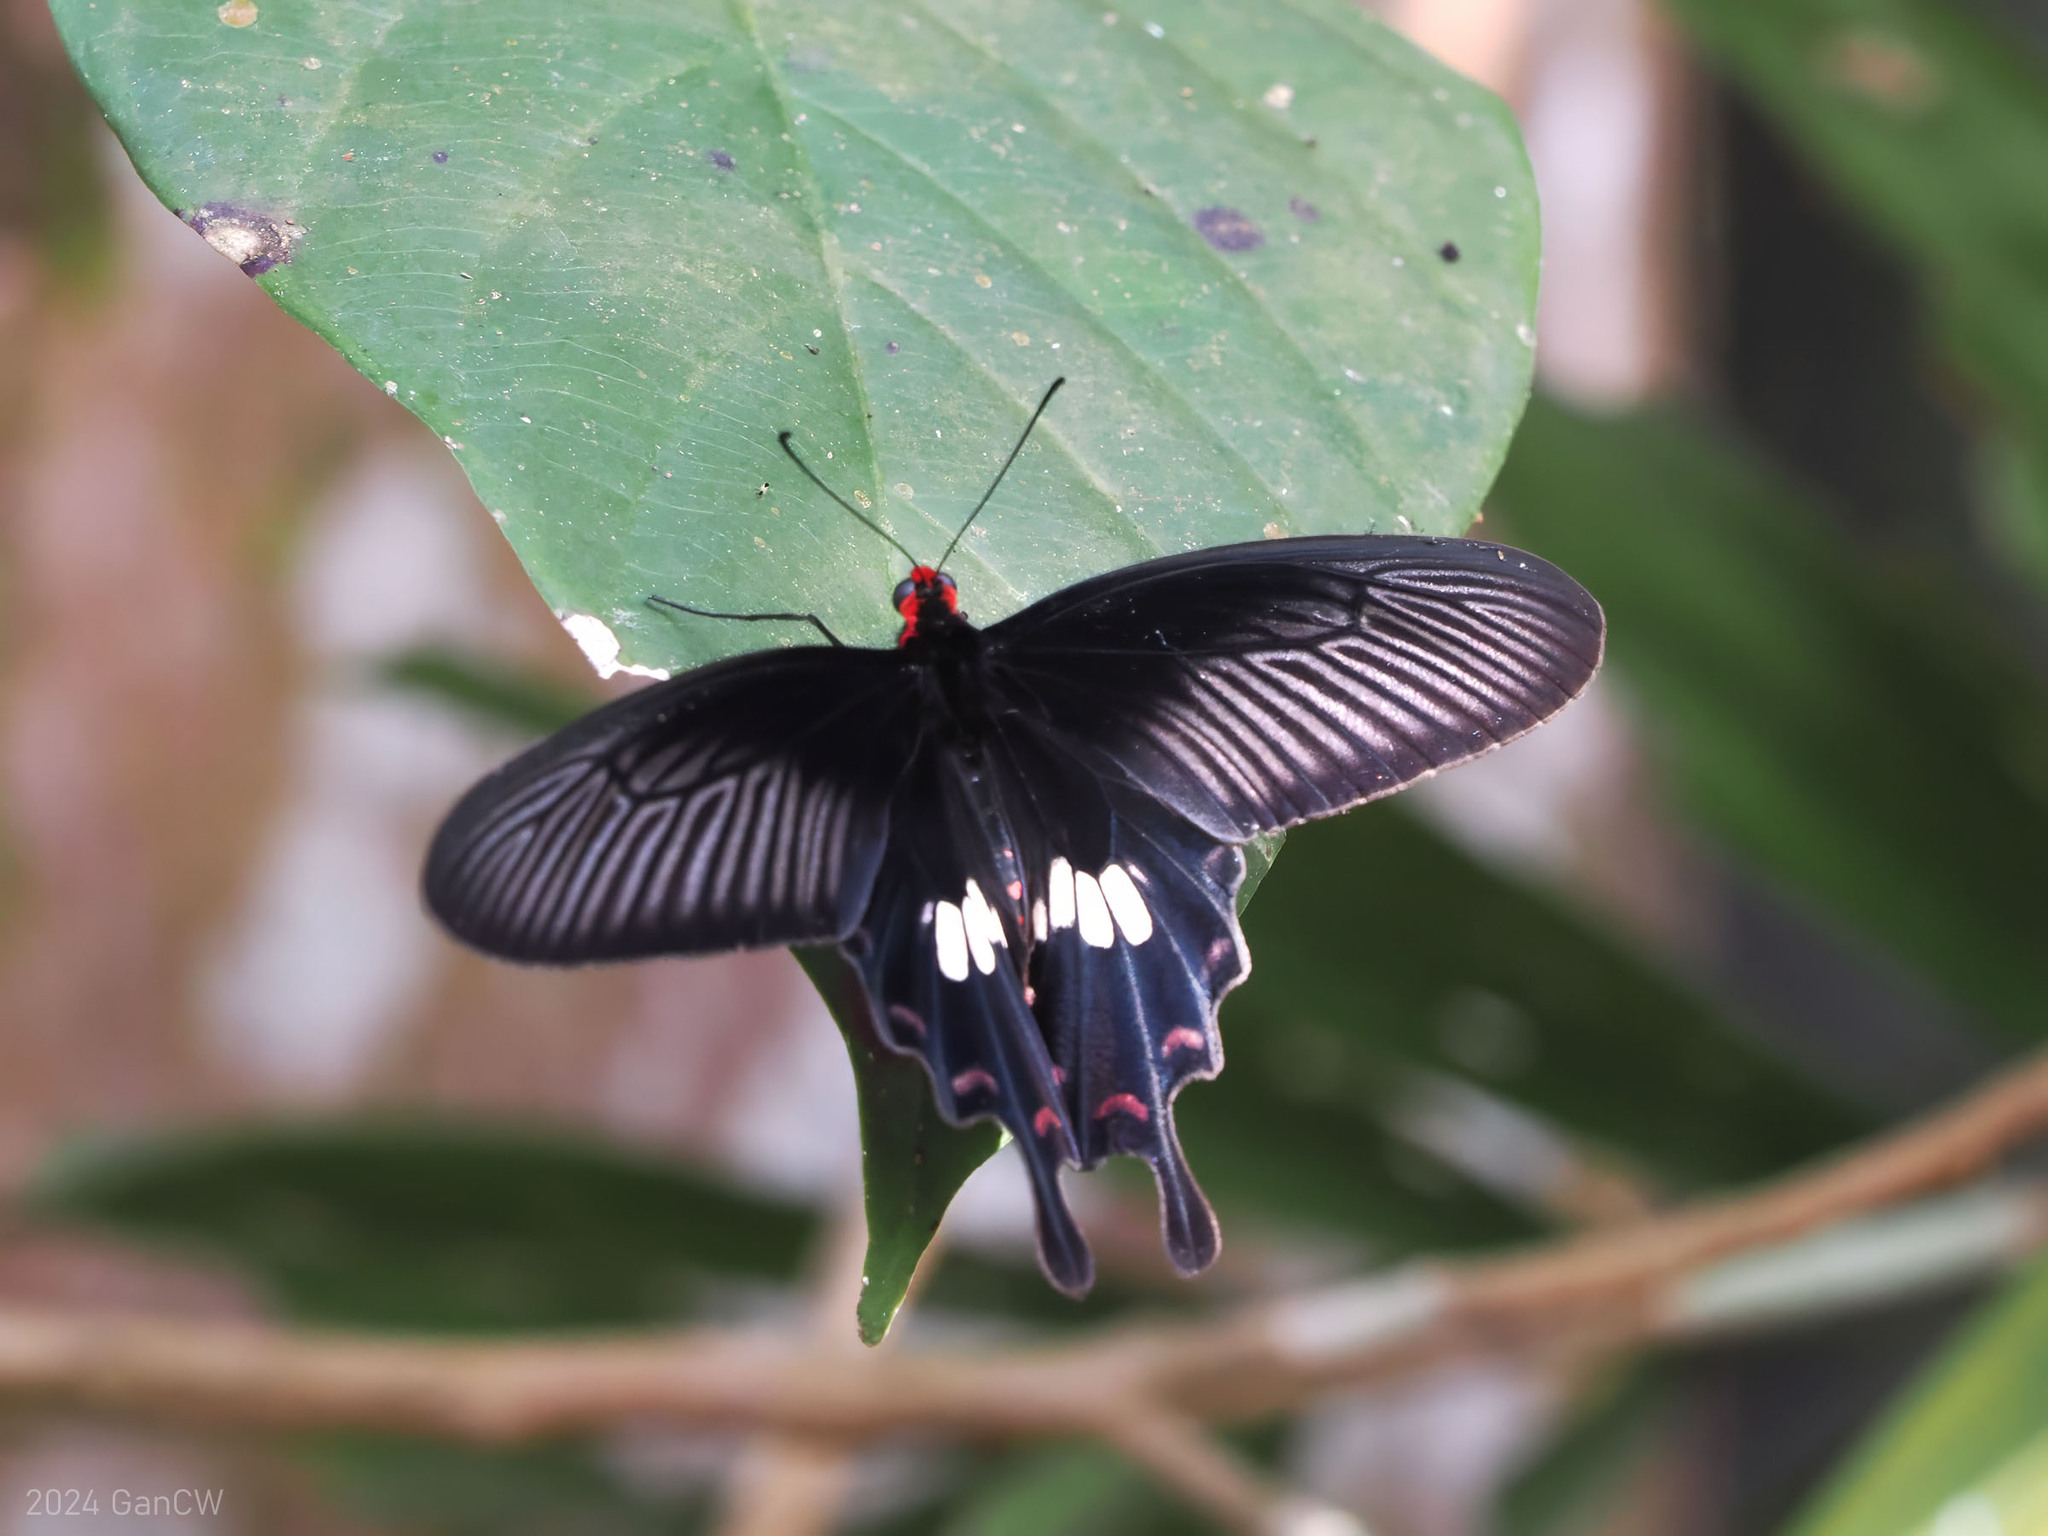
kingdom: Animalia
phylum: Arthropoda
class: Insecta
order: Lepidoptera
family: Papilionidae
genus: Pachliopta
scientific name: Pachliopta aristolochiae
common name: Common rose
